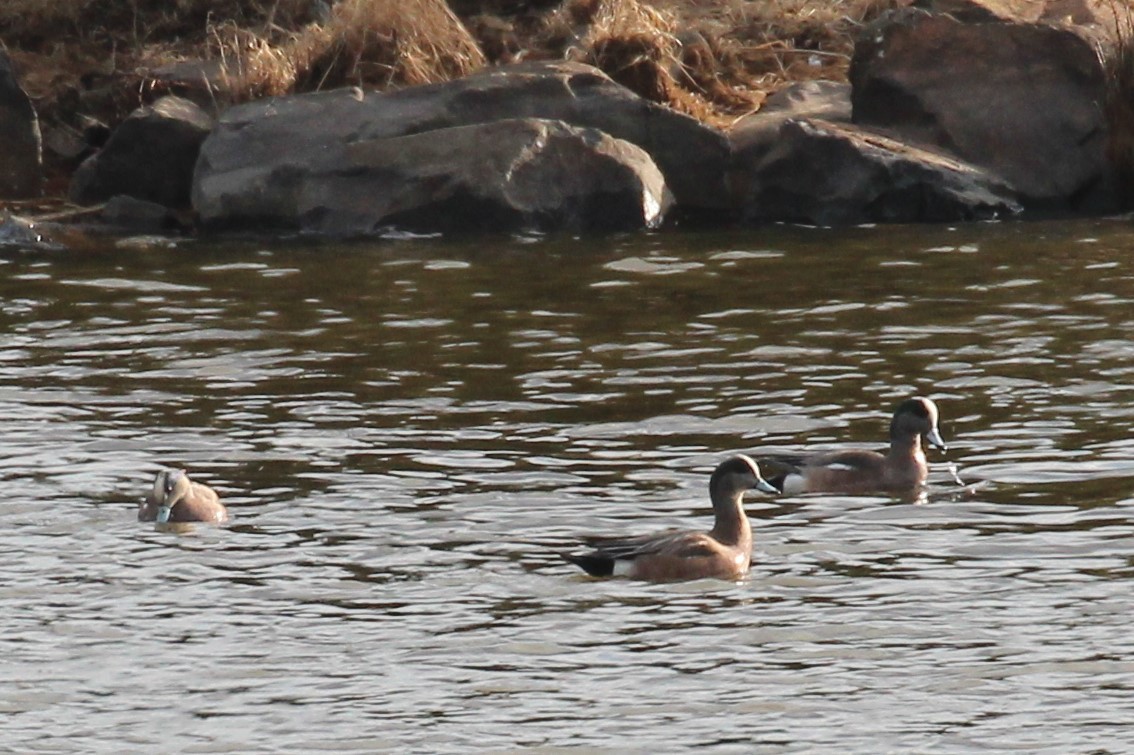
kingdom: Animalia
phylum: Chordata
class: Aves
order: Anseriformes
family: Anatidae
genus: Mareca
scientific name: Mareca americana
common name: American wigeon
